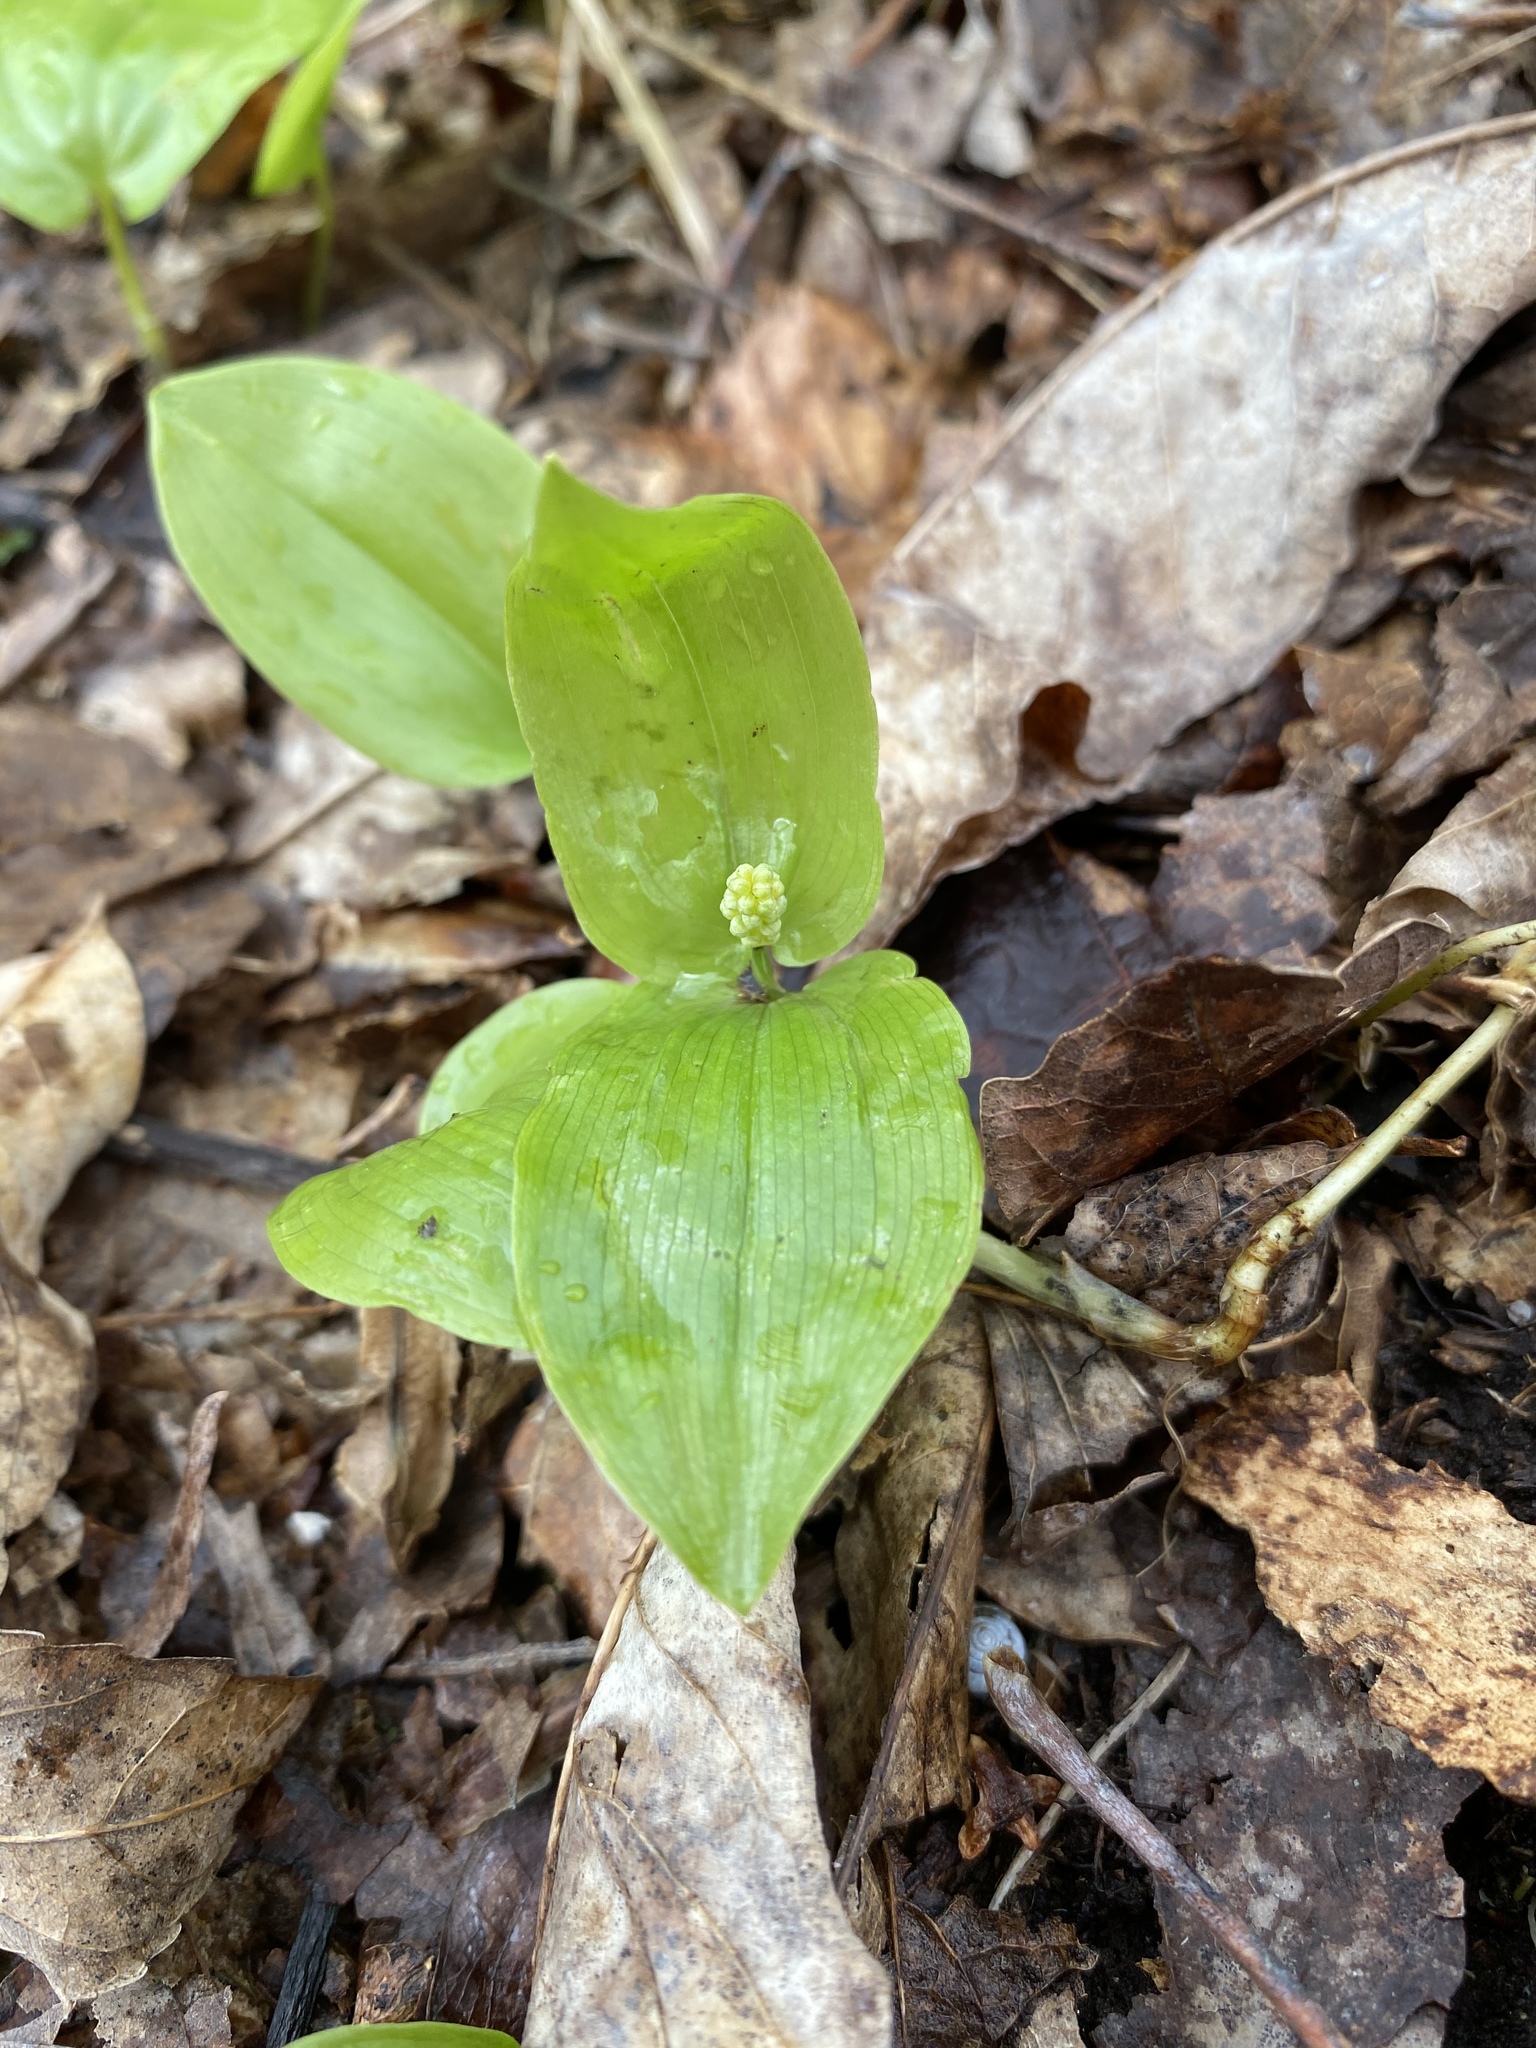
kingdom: Plantae
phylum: Tracheophyta
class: Liliopsida
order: Asparagales
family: Asparagaceae
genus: Maianthemum
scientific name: Maianthemum canadense
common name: False lily-of-the-valley
